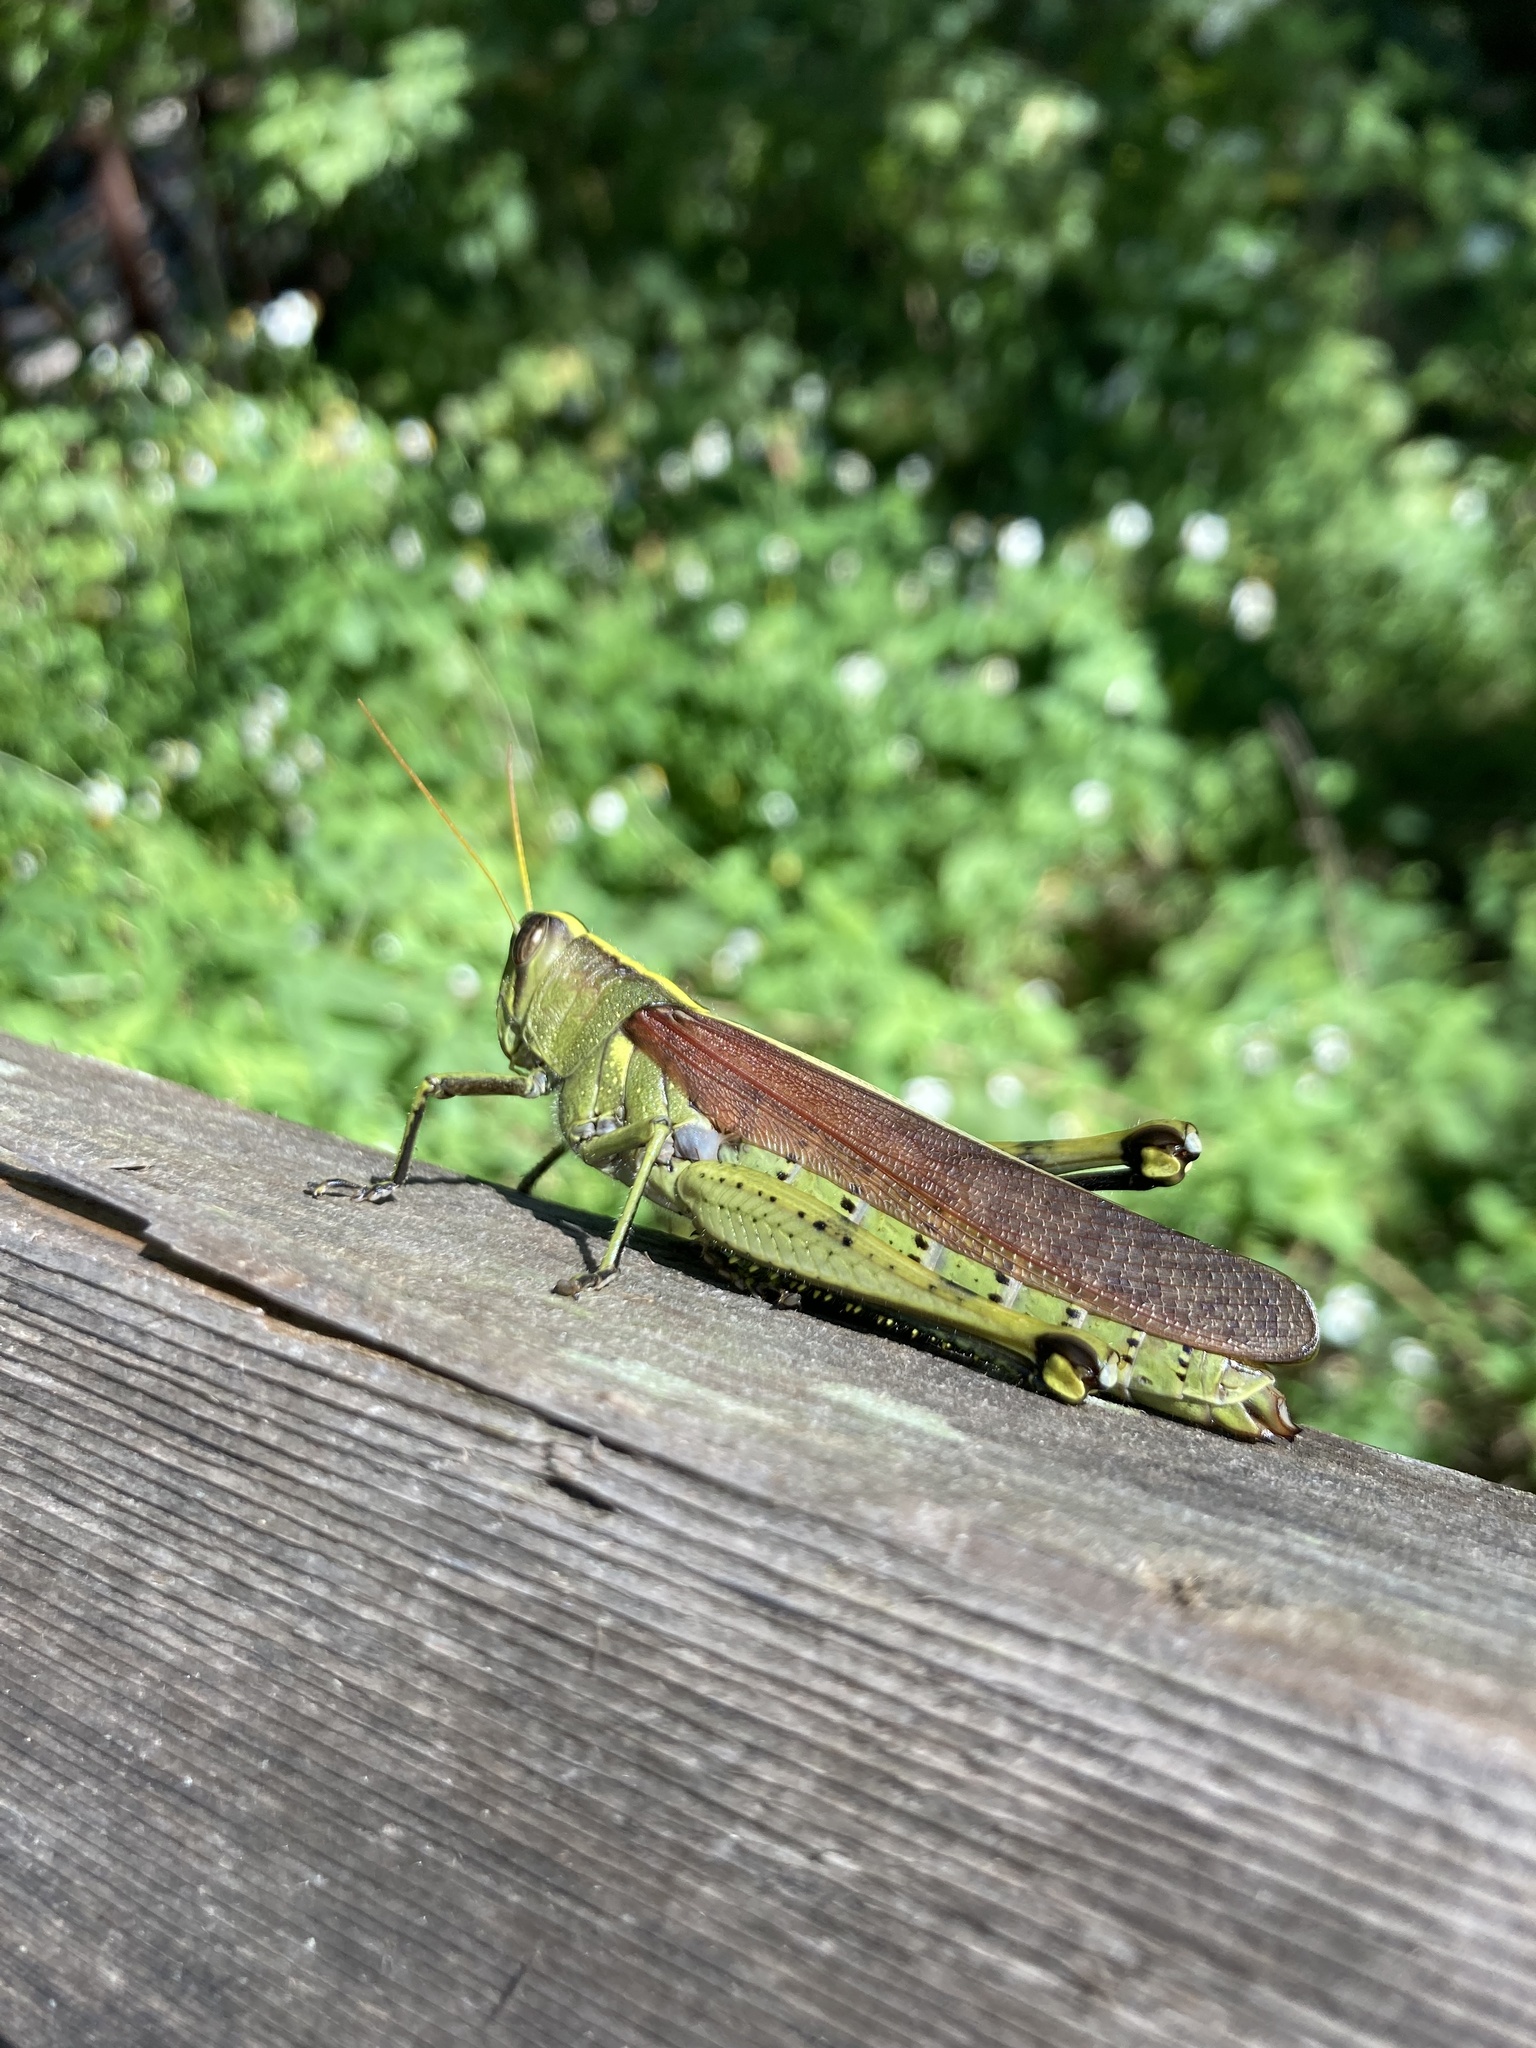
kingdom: Animalia
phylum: Arthropoda
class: Insecta
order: Orthoptera
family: Acrididae
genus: Schistocerca
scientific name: Schistocerca obscura
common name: Obscure bird grasshopper
